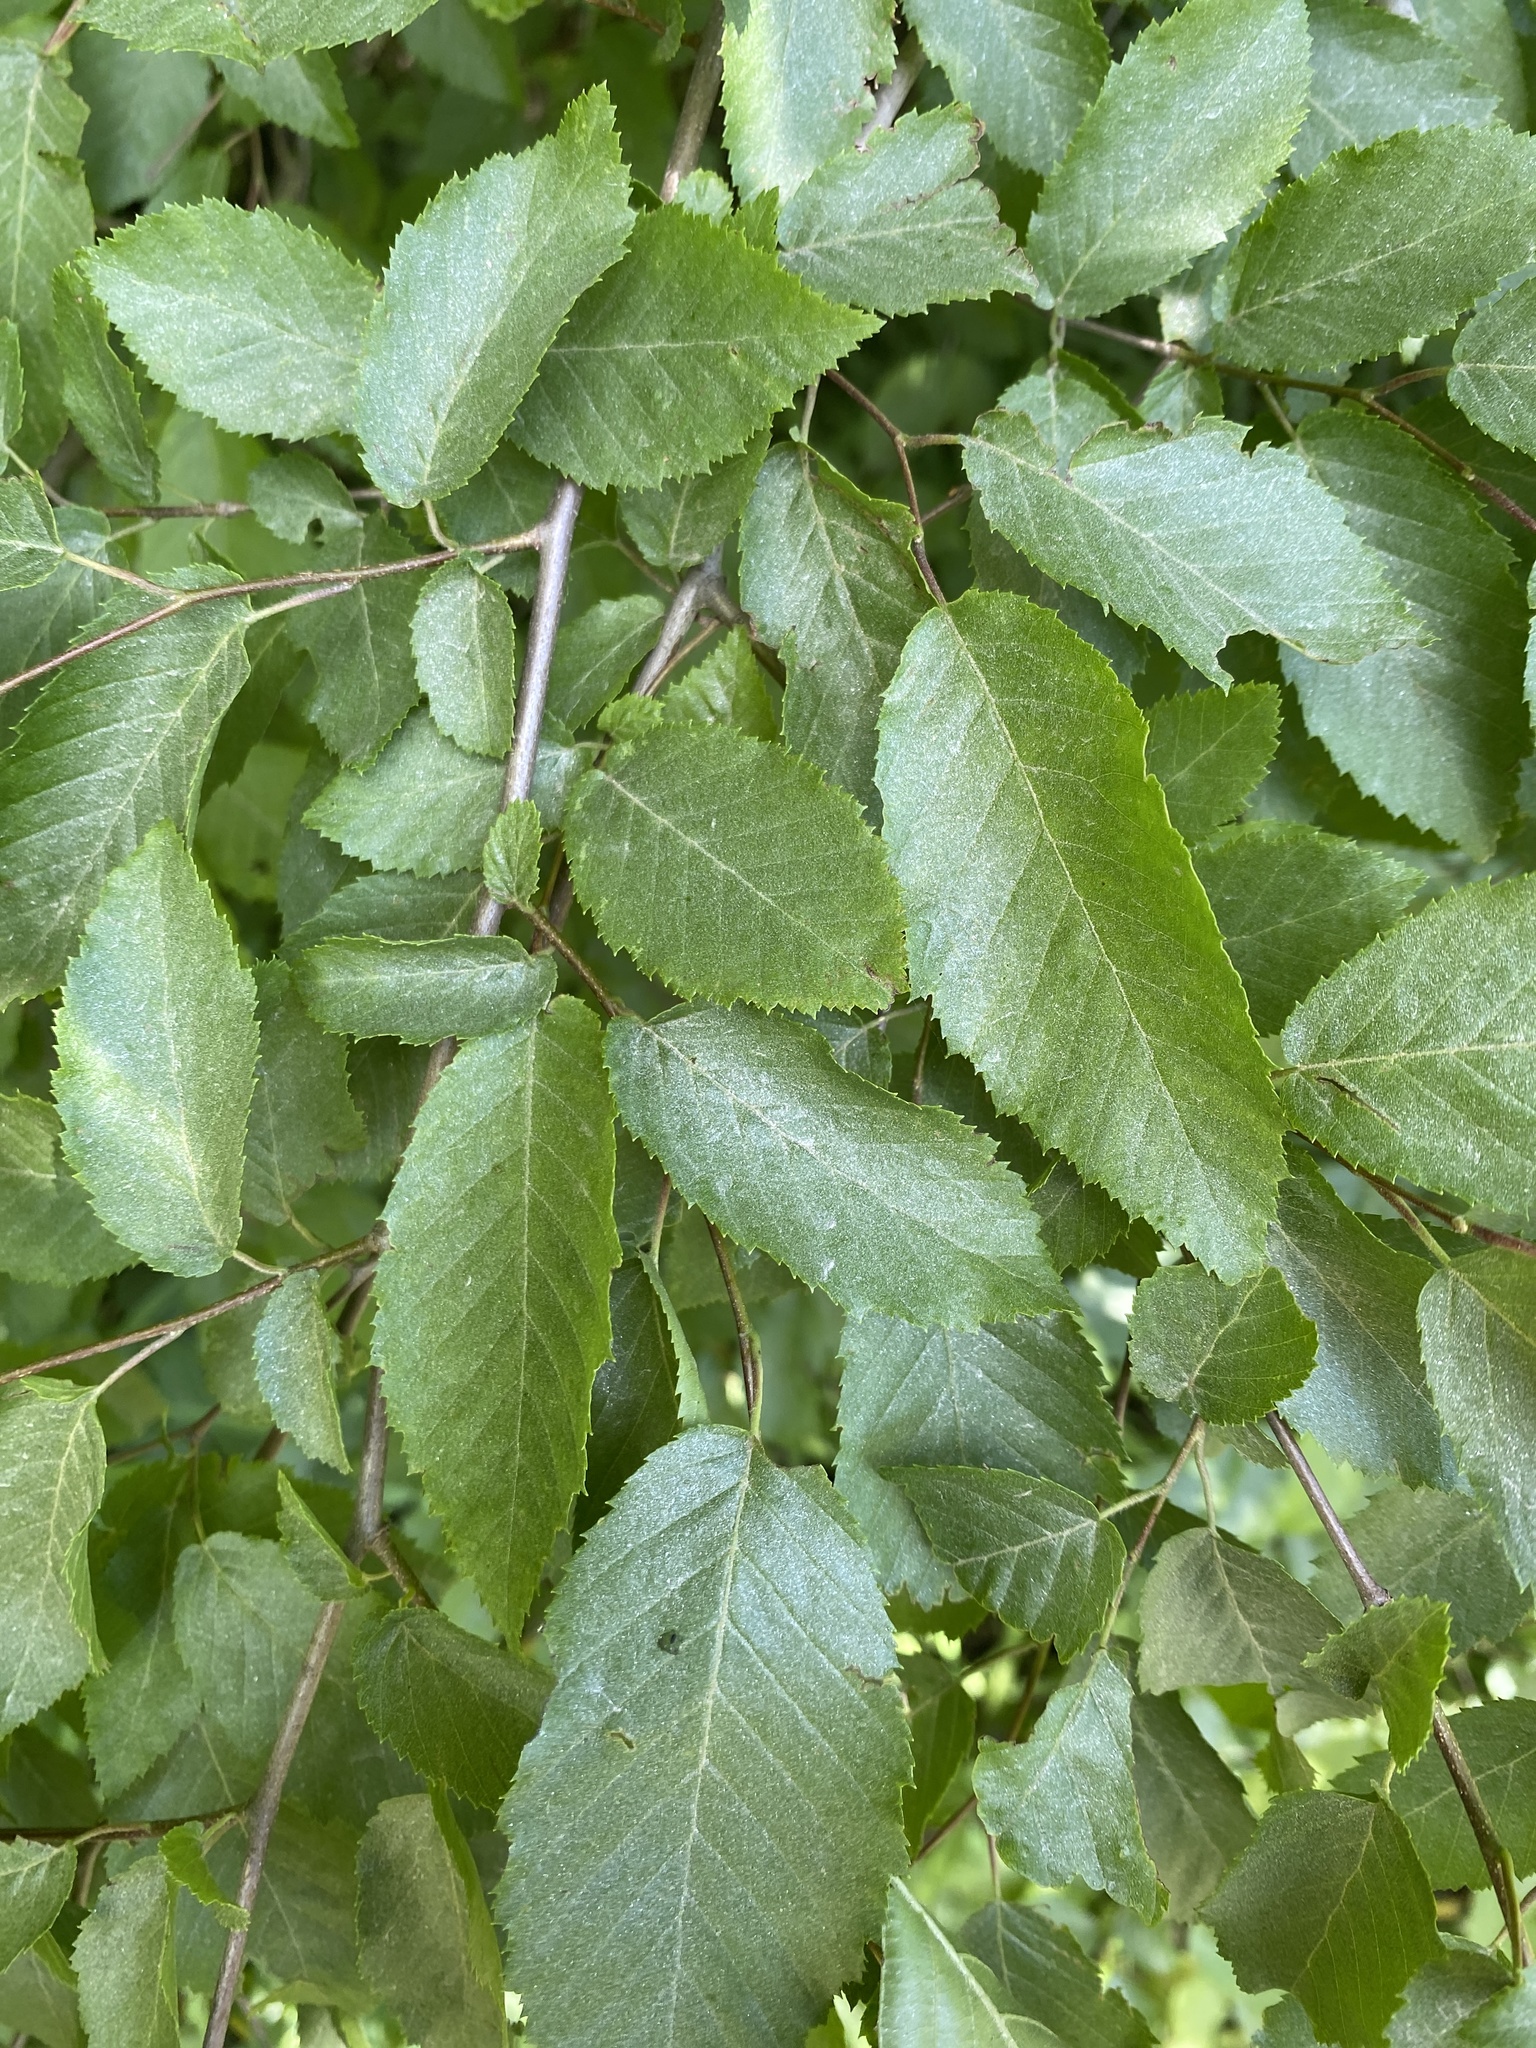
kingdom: Plantae
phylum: Tracheophyta
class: Magnoliopsida
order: Fagales
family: Betulaceae
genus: Carpinus
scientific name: Carpinus caroliniana
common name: American hornbeam
